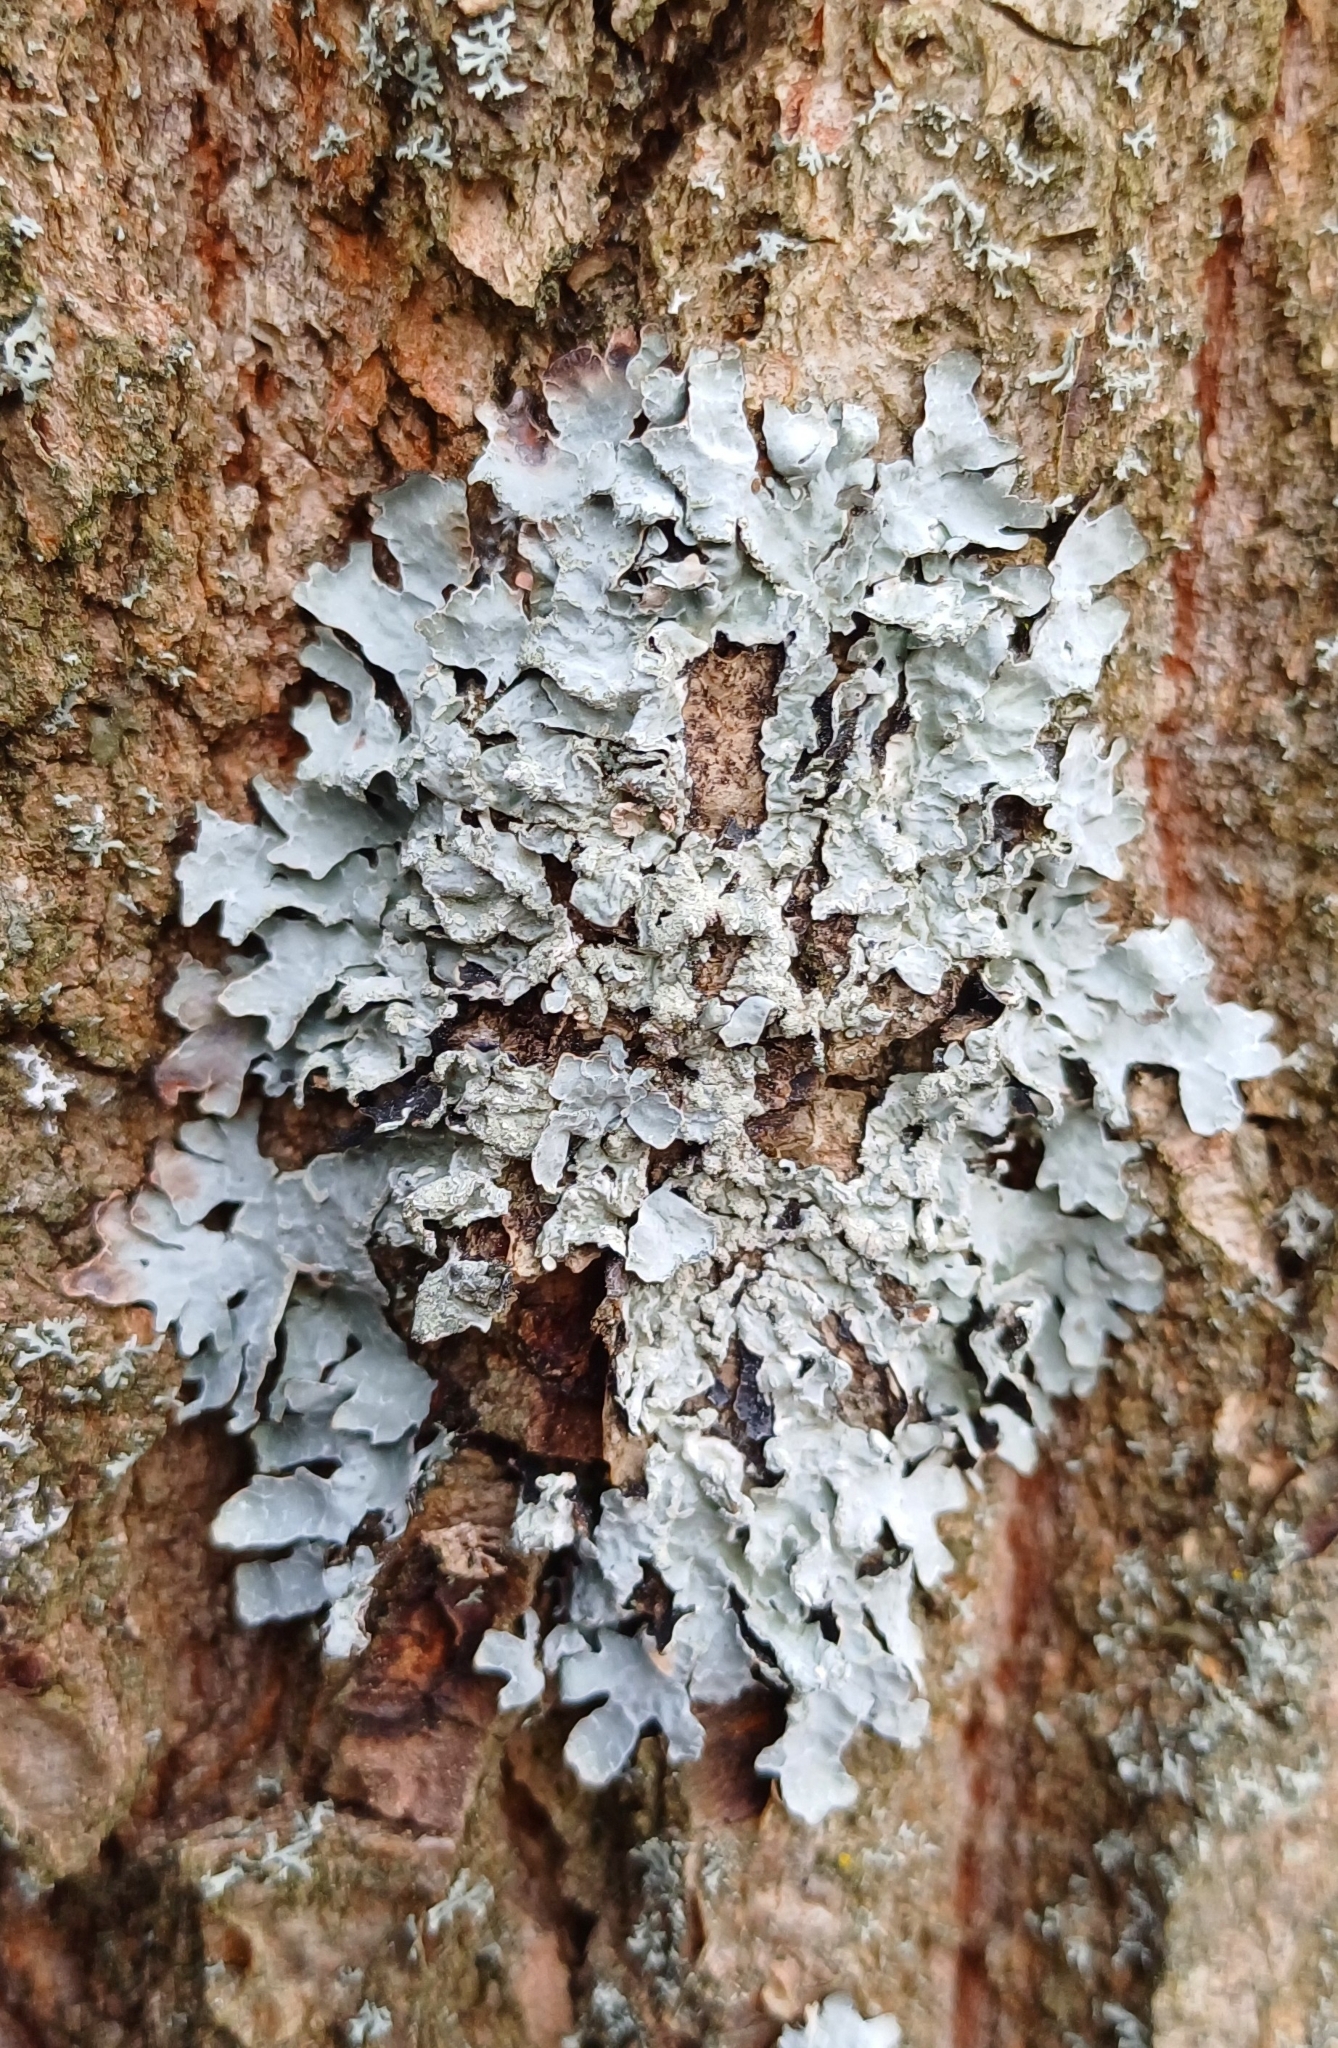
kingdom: Fungi
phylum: Ascomycota
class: Lecanoromycetes
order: Lecanorales
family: Parmeliaceae
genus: Parmelia
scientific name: Parmelia sulcata
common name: Netted shield lichen
